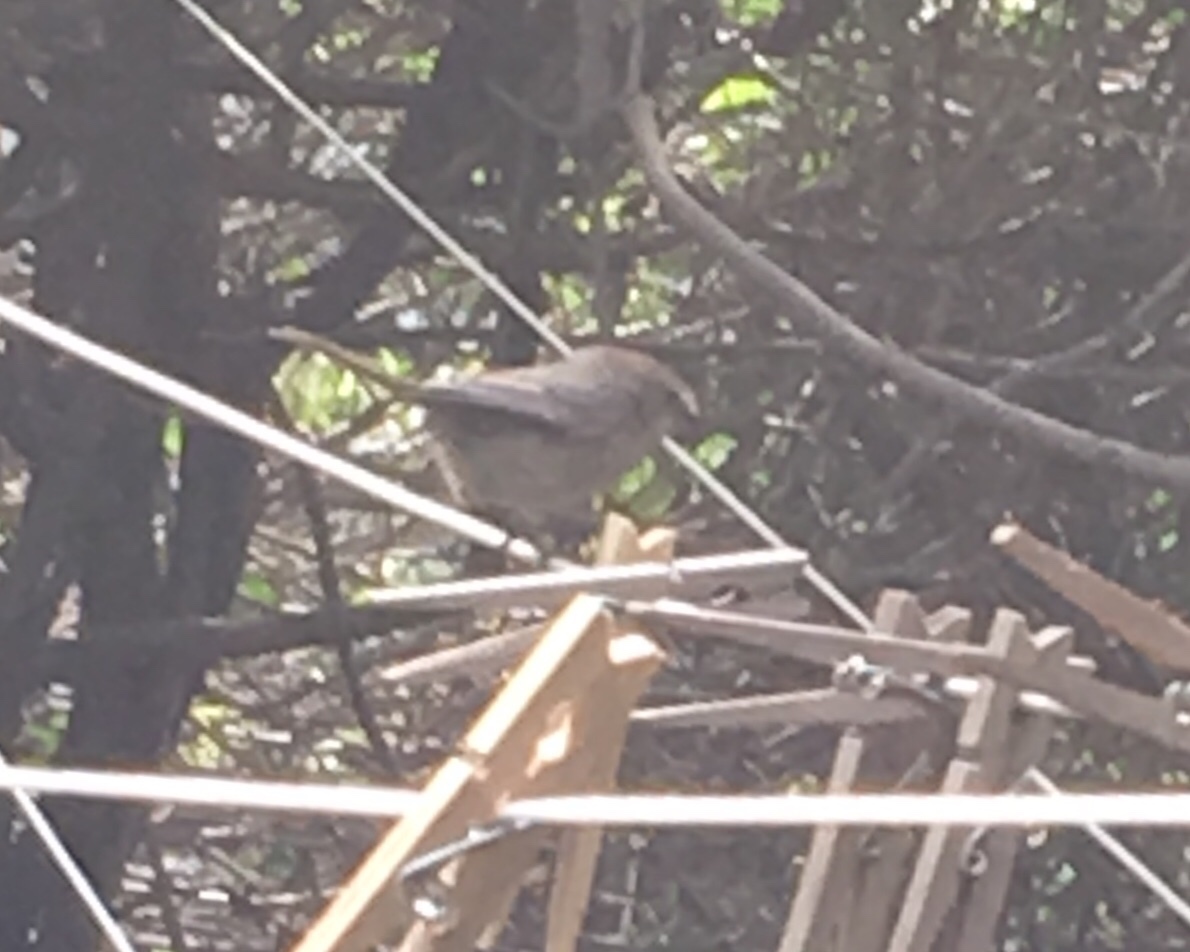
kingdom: Animalia
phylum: Chordata
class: Aves
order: Passeriformes
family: Aegithalidae
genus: Psaltriparus
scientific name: Psaltriparus minimus
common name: American bushtit
